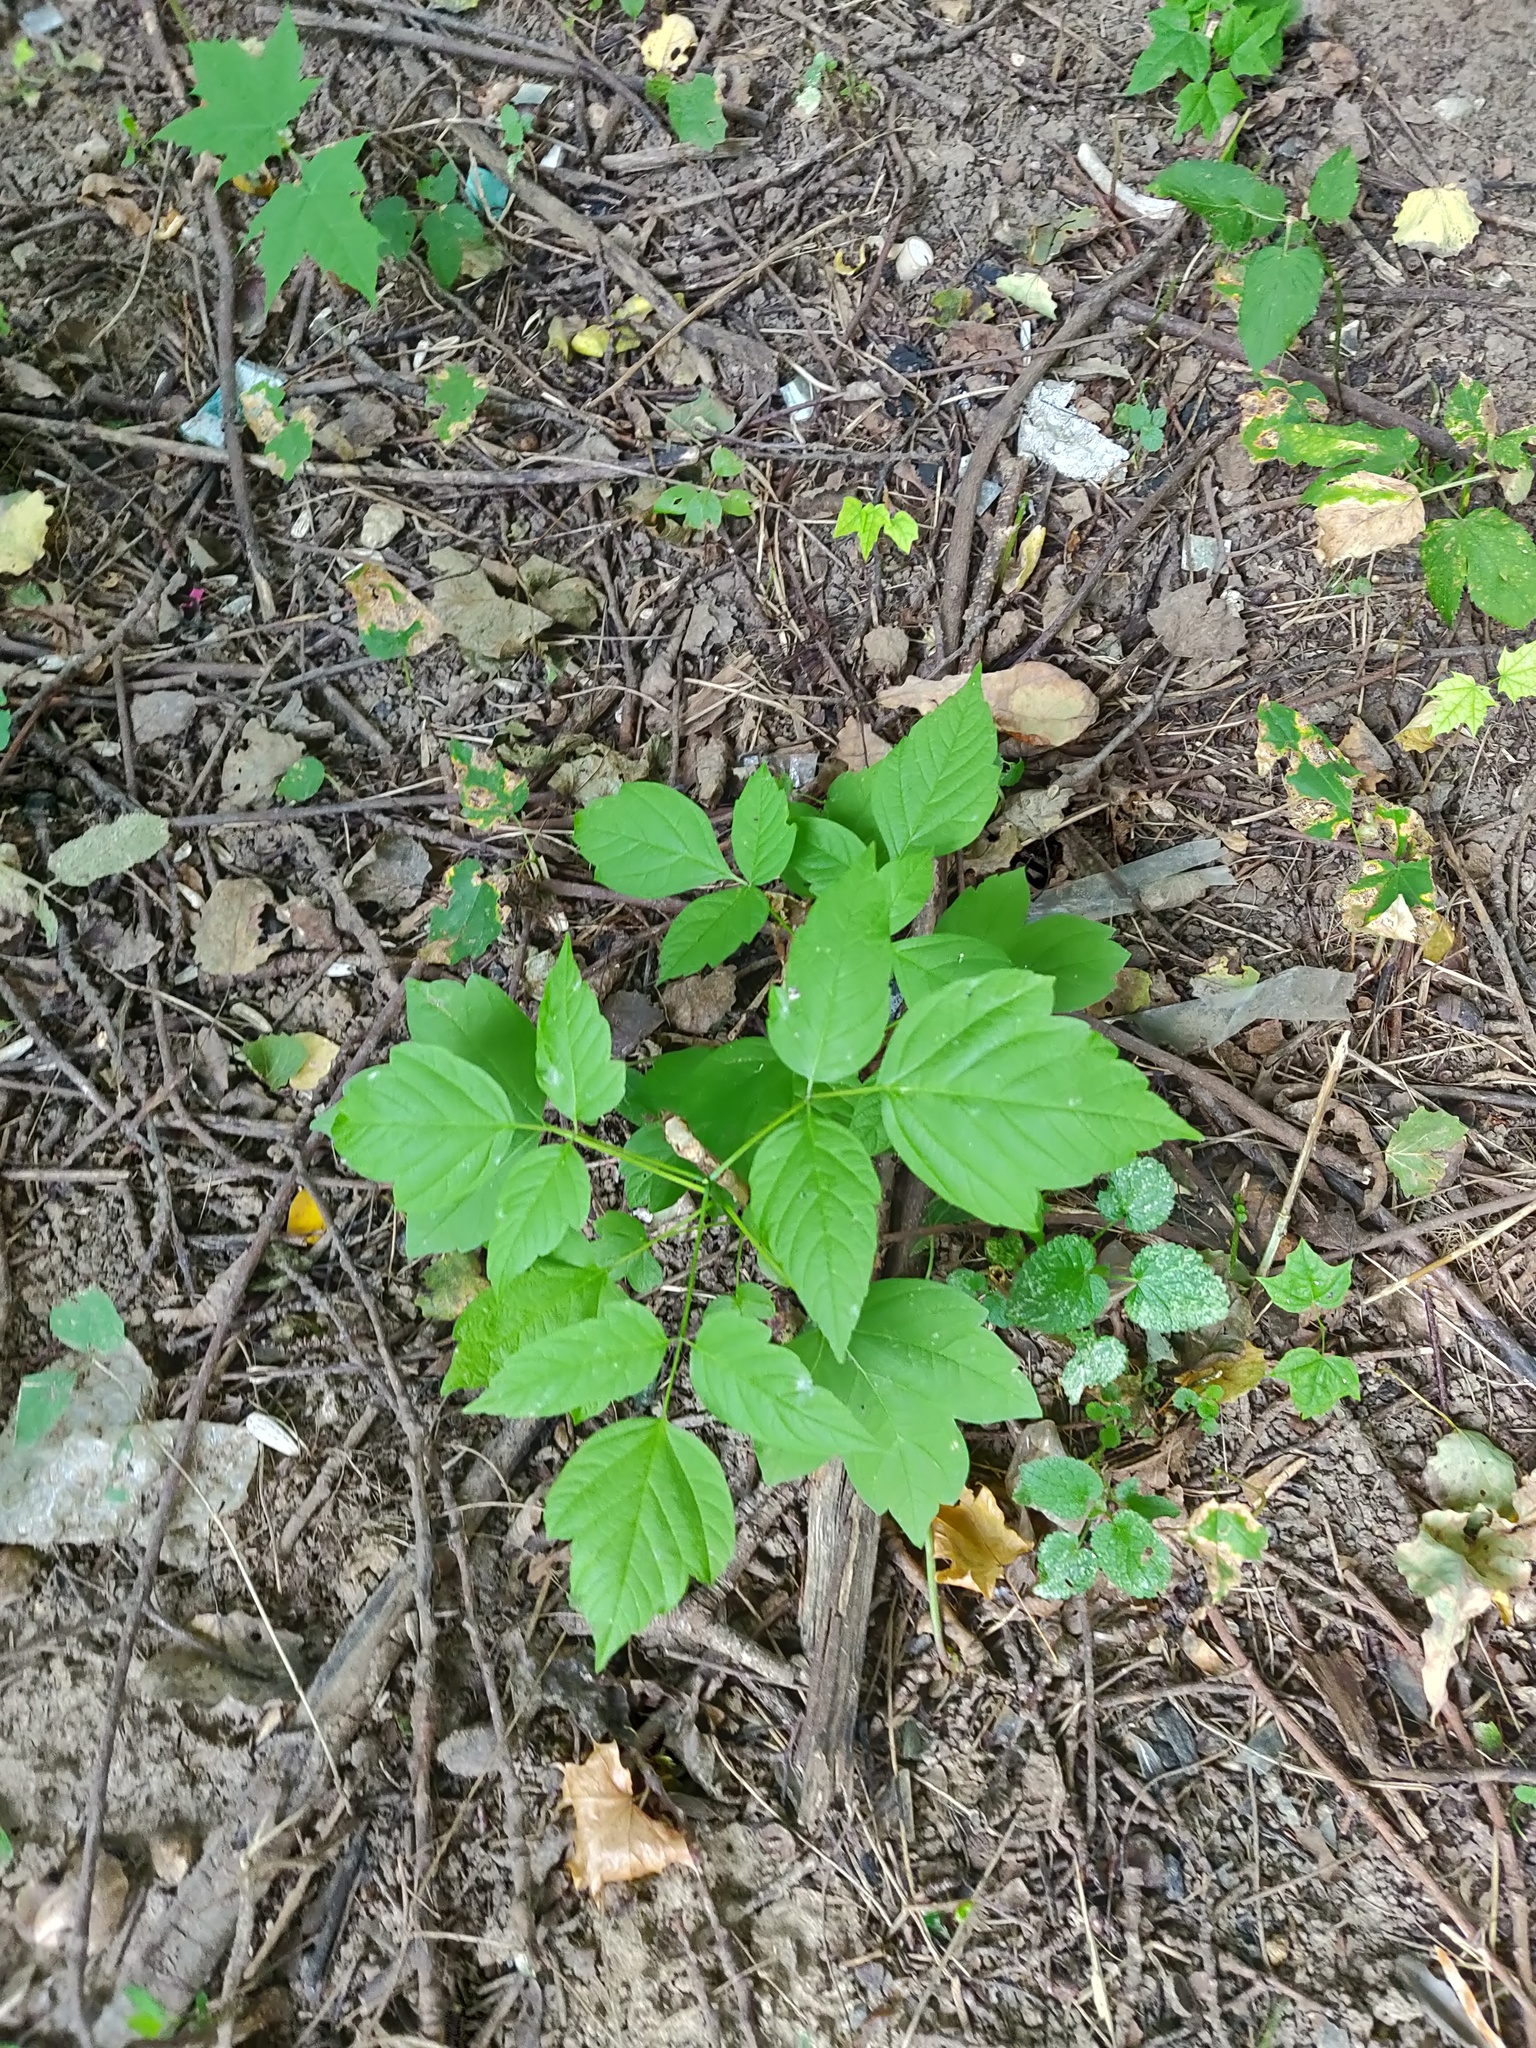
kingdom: Plantae
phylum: Tracheophyta
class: Magnoliopsida
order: Sapindales
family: Sapindaceae
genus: Acer
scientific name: Acer negundo
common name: Ashleaf maple
